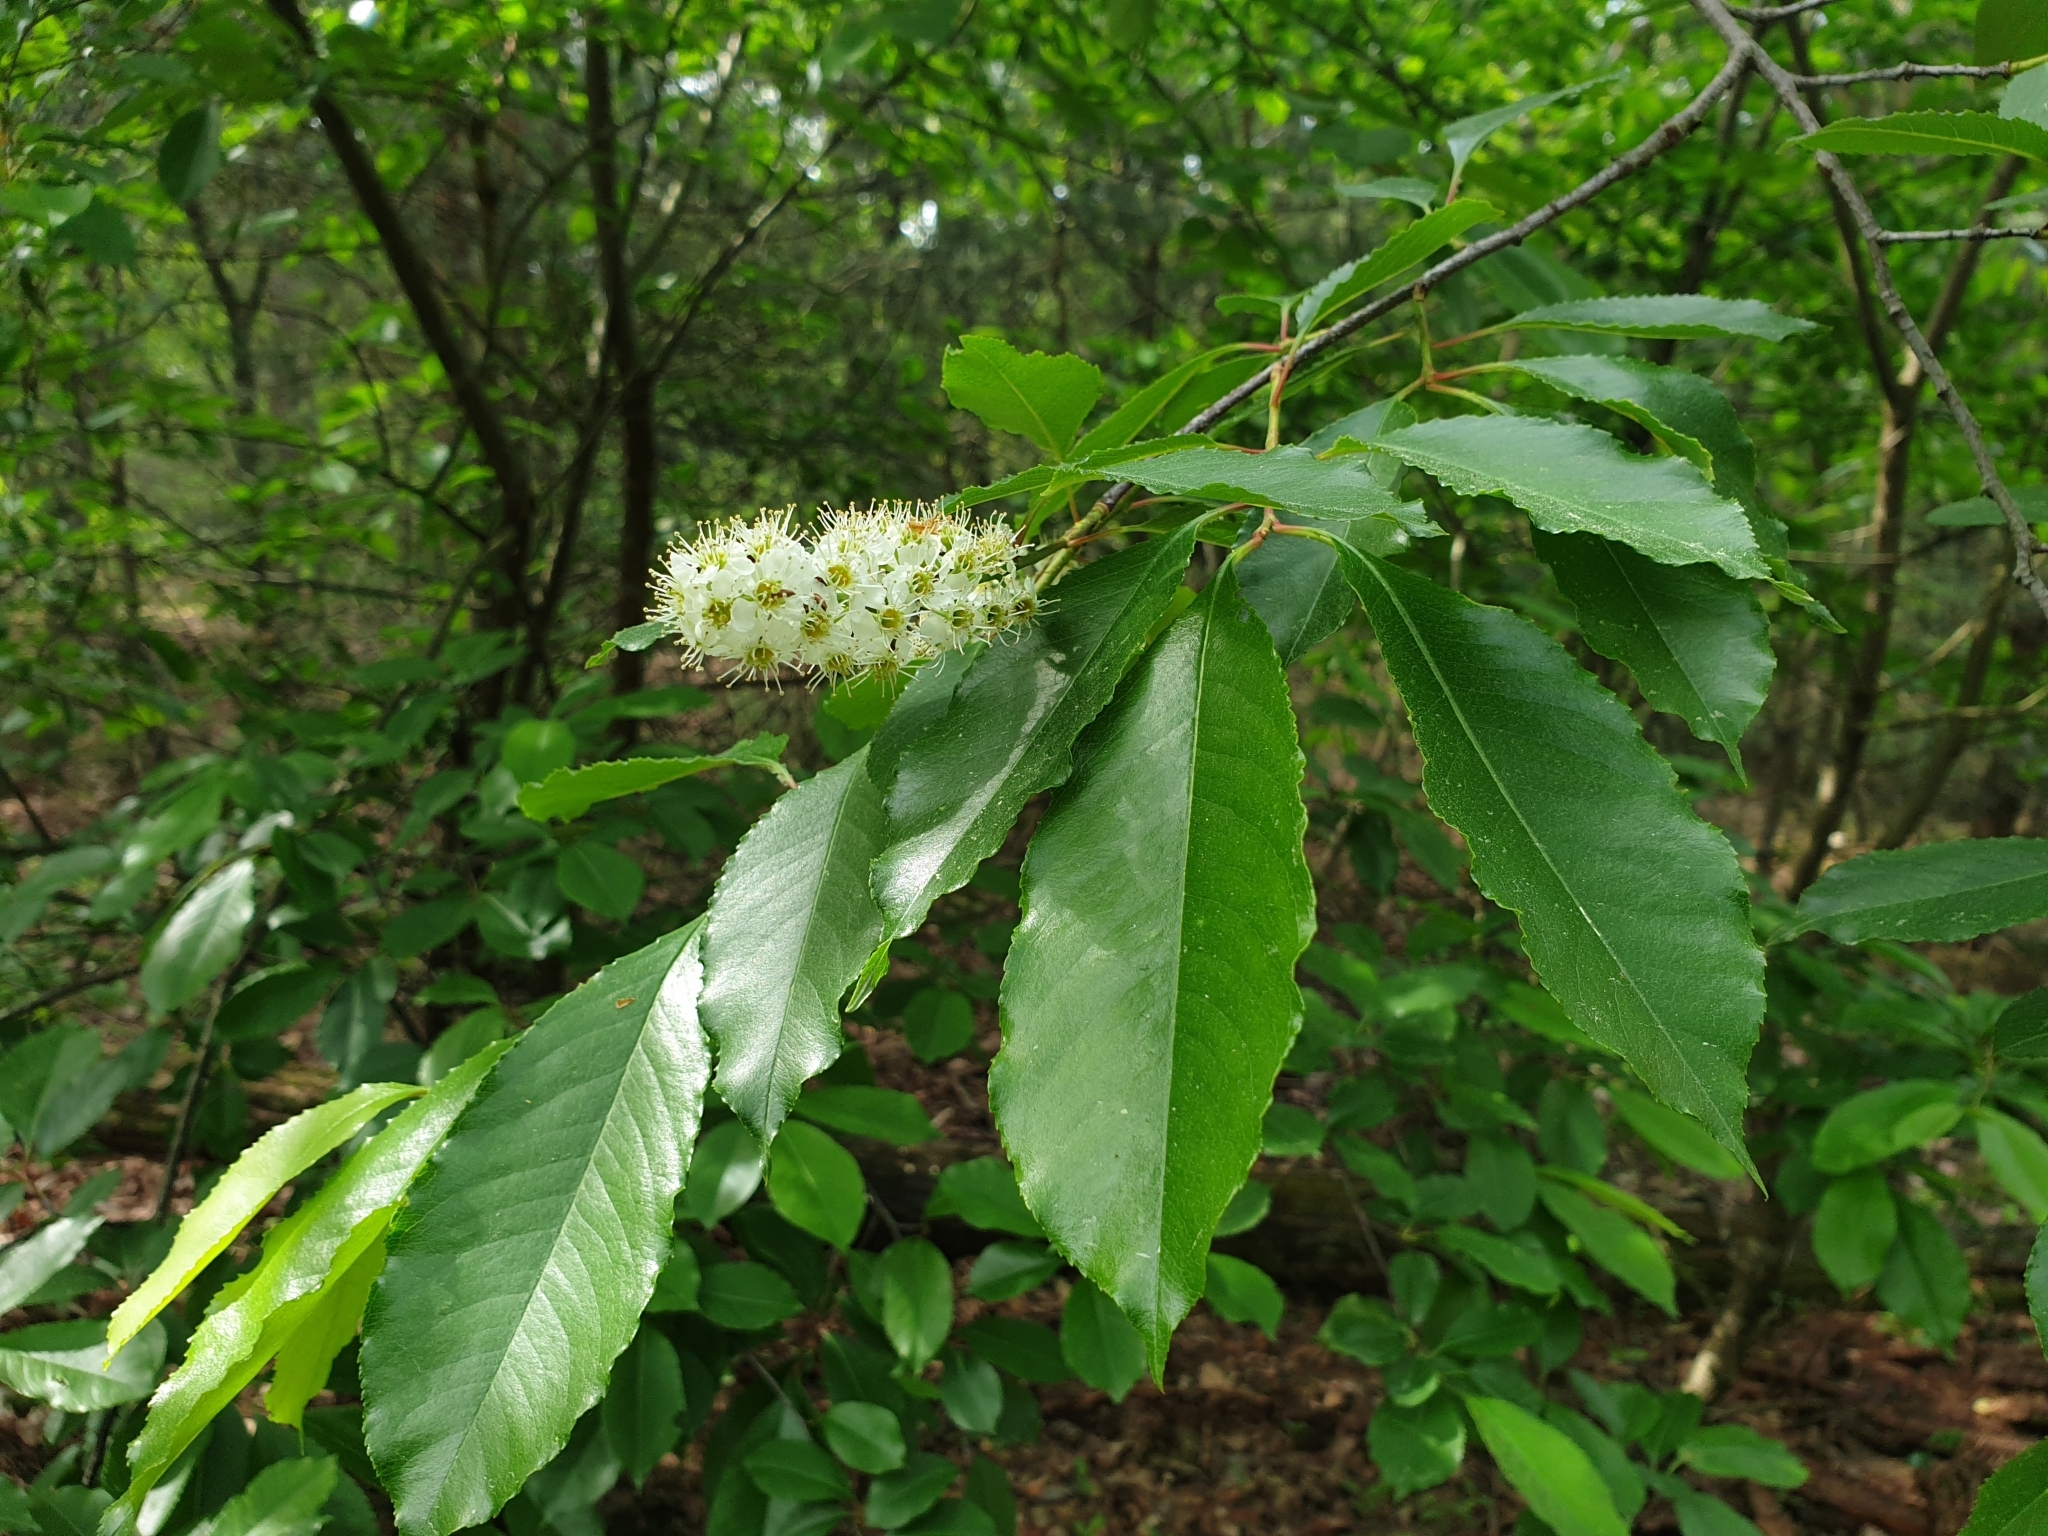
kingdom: Plantae
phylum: Tracheophyta
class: Magnoliopsida
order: Rosales
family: Rosaceae
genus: Prunus
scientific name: Prunus serotina
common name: Black cherry
